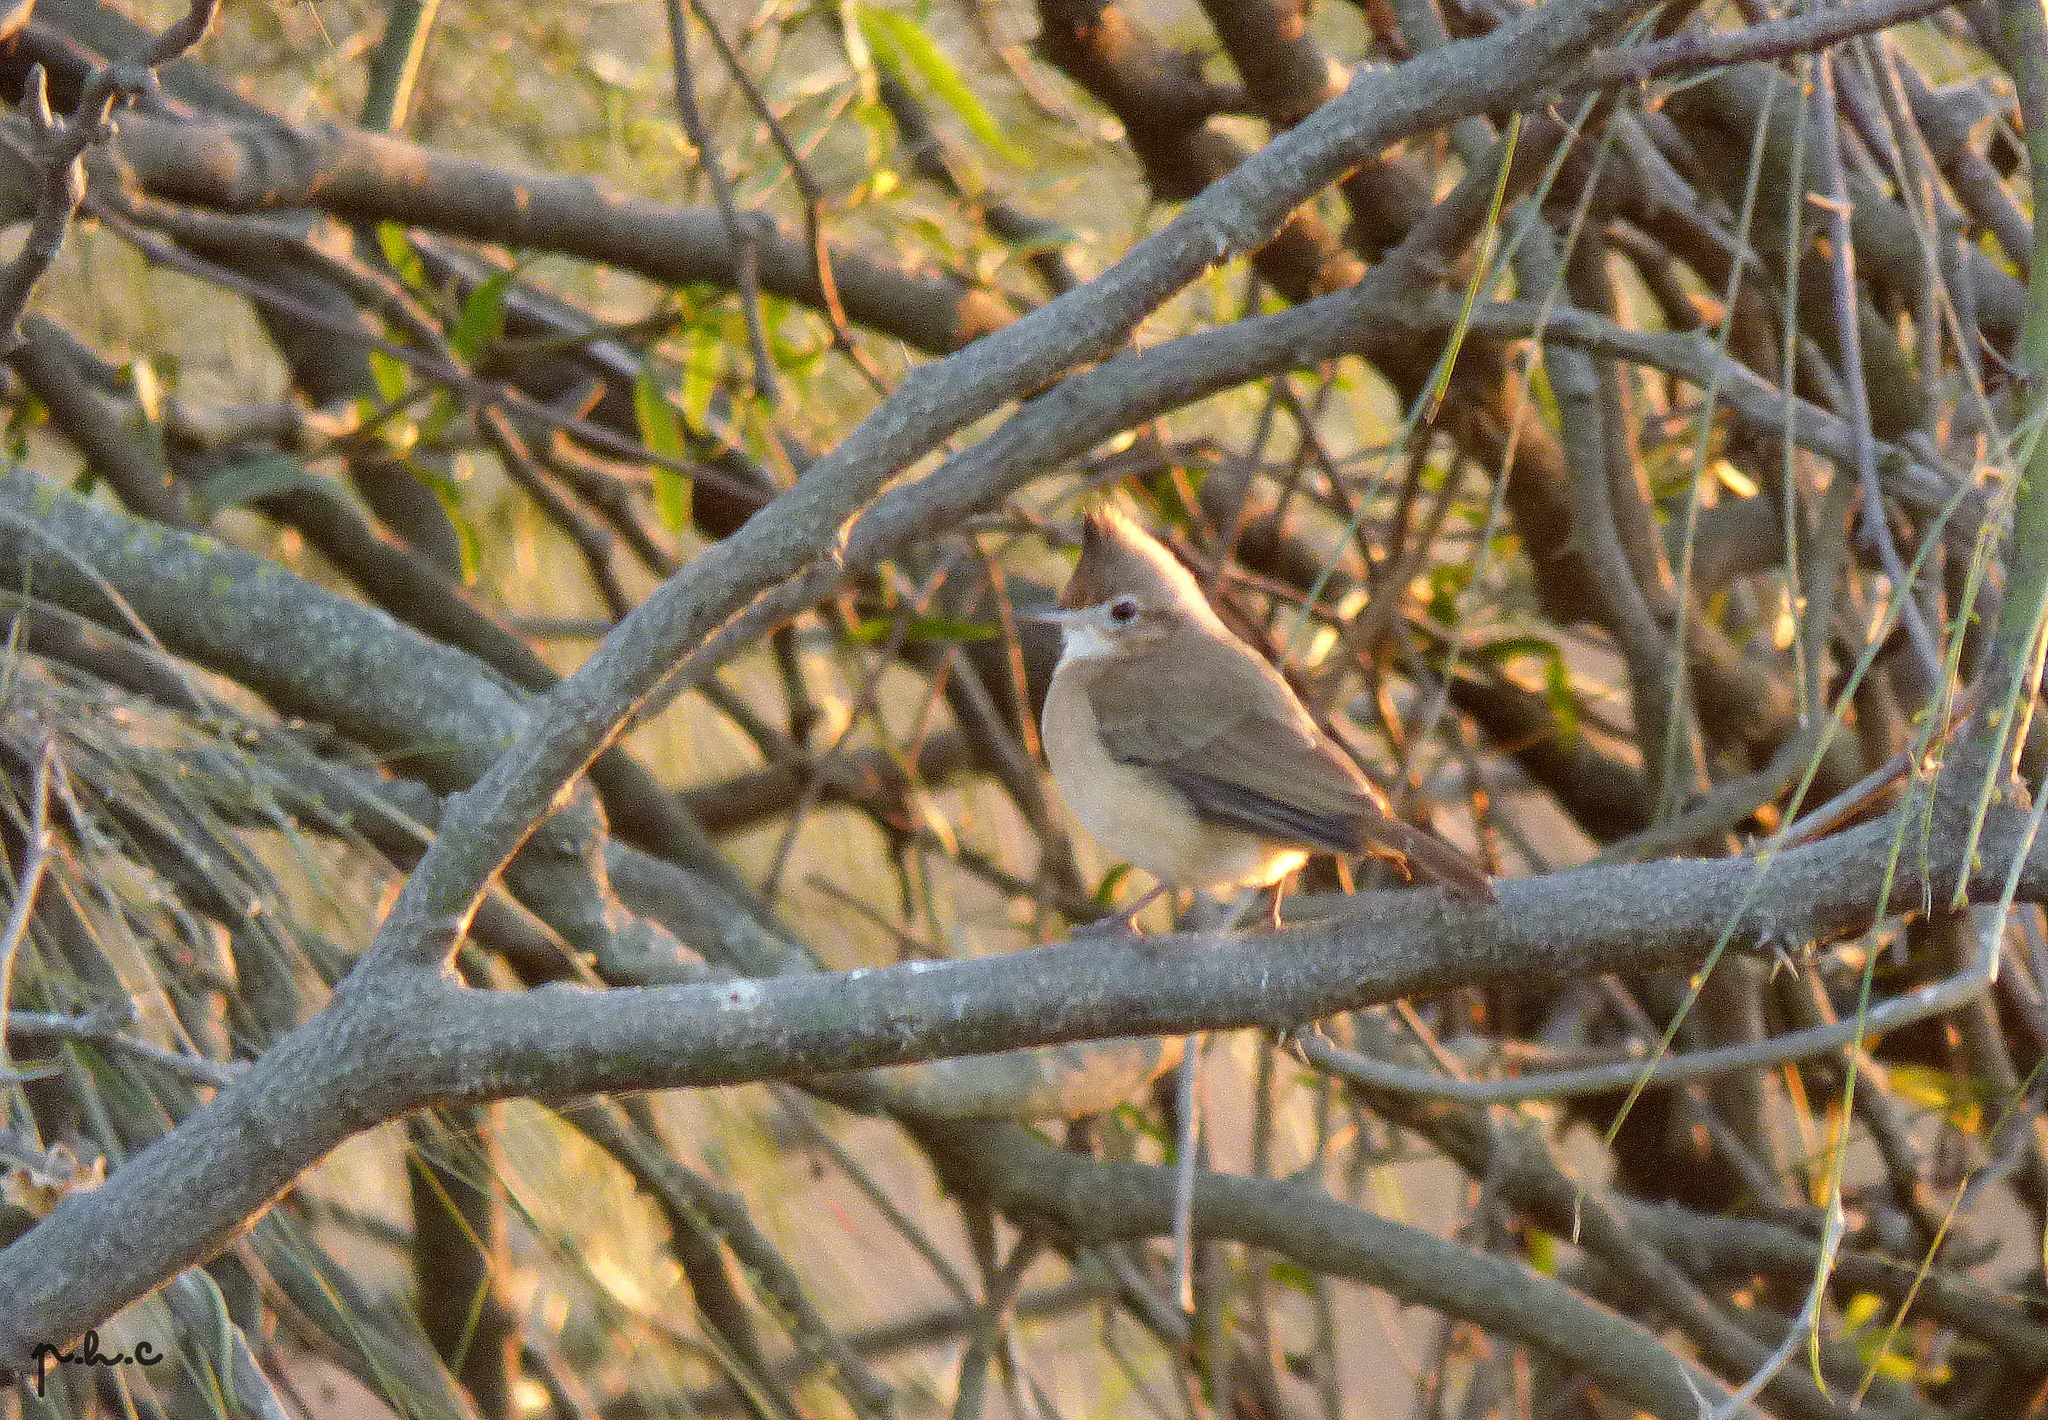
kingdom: Animalia
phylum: Chordata
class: Aves
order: Passeriformes
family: Furnariidae
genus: Furnarius
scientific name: Furnarius cristatus
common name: Crested hornero
